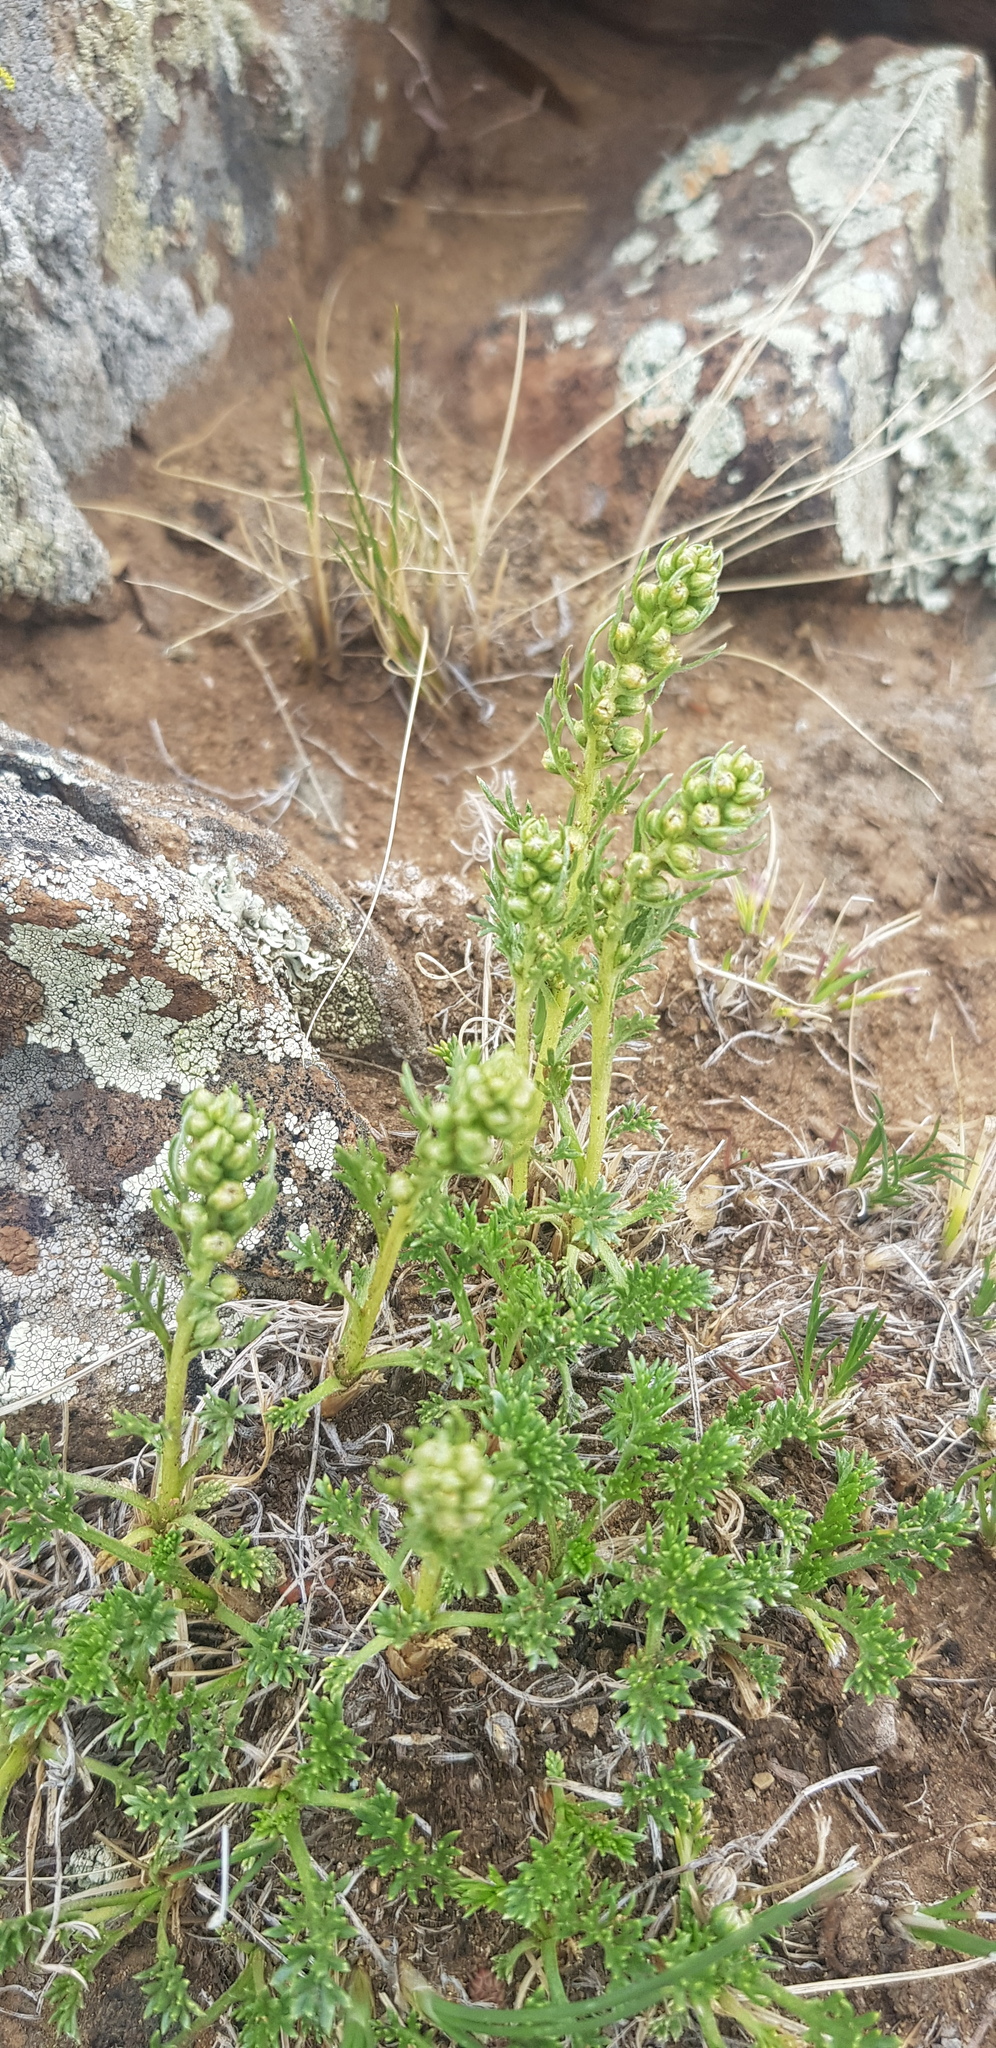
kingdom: Plantae
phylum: Tracheophyta
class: Magnoliopsida
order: Asterales
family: Asteraceae
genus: Artemisia
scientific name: Artemisia tanacetifolia
